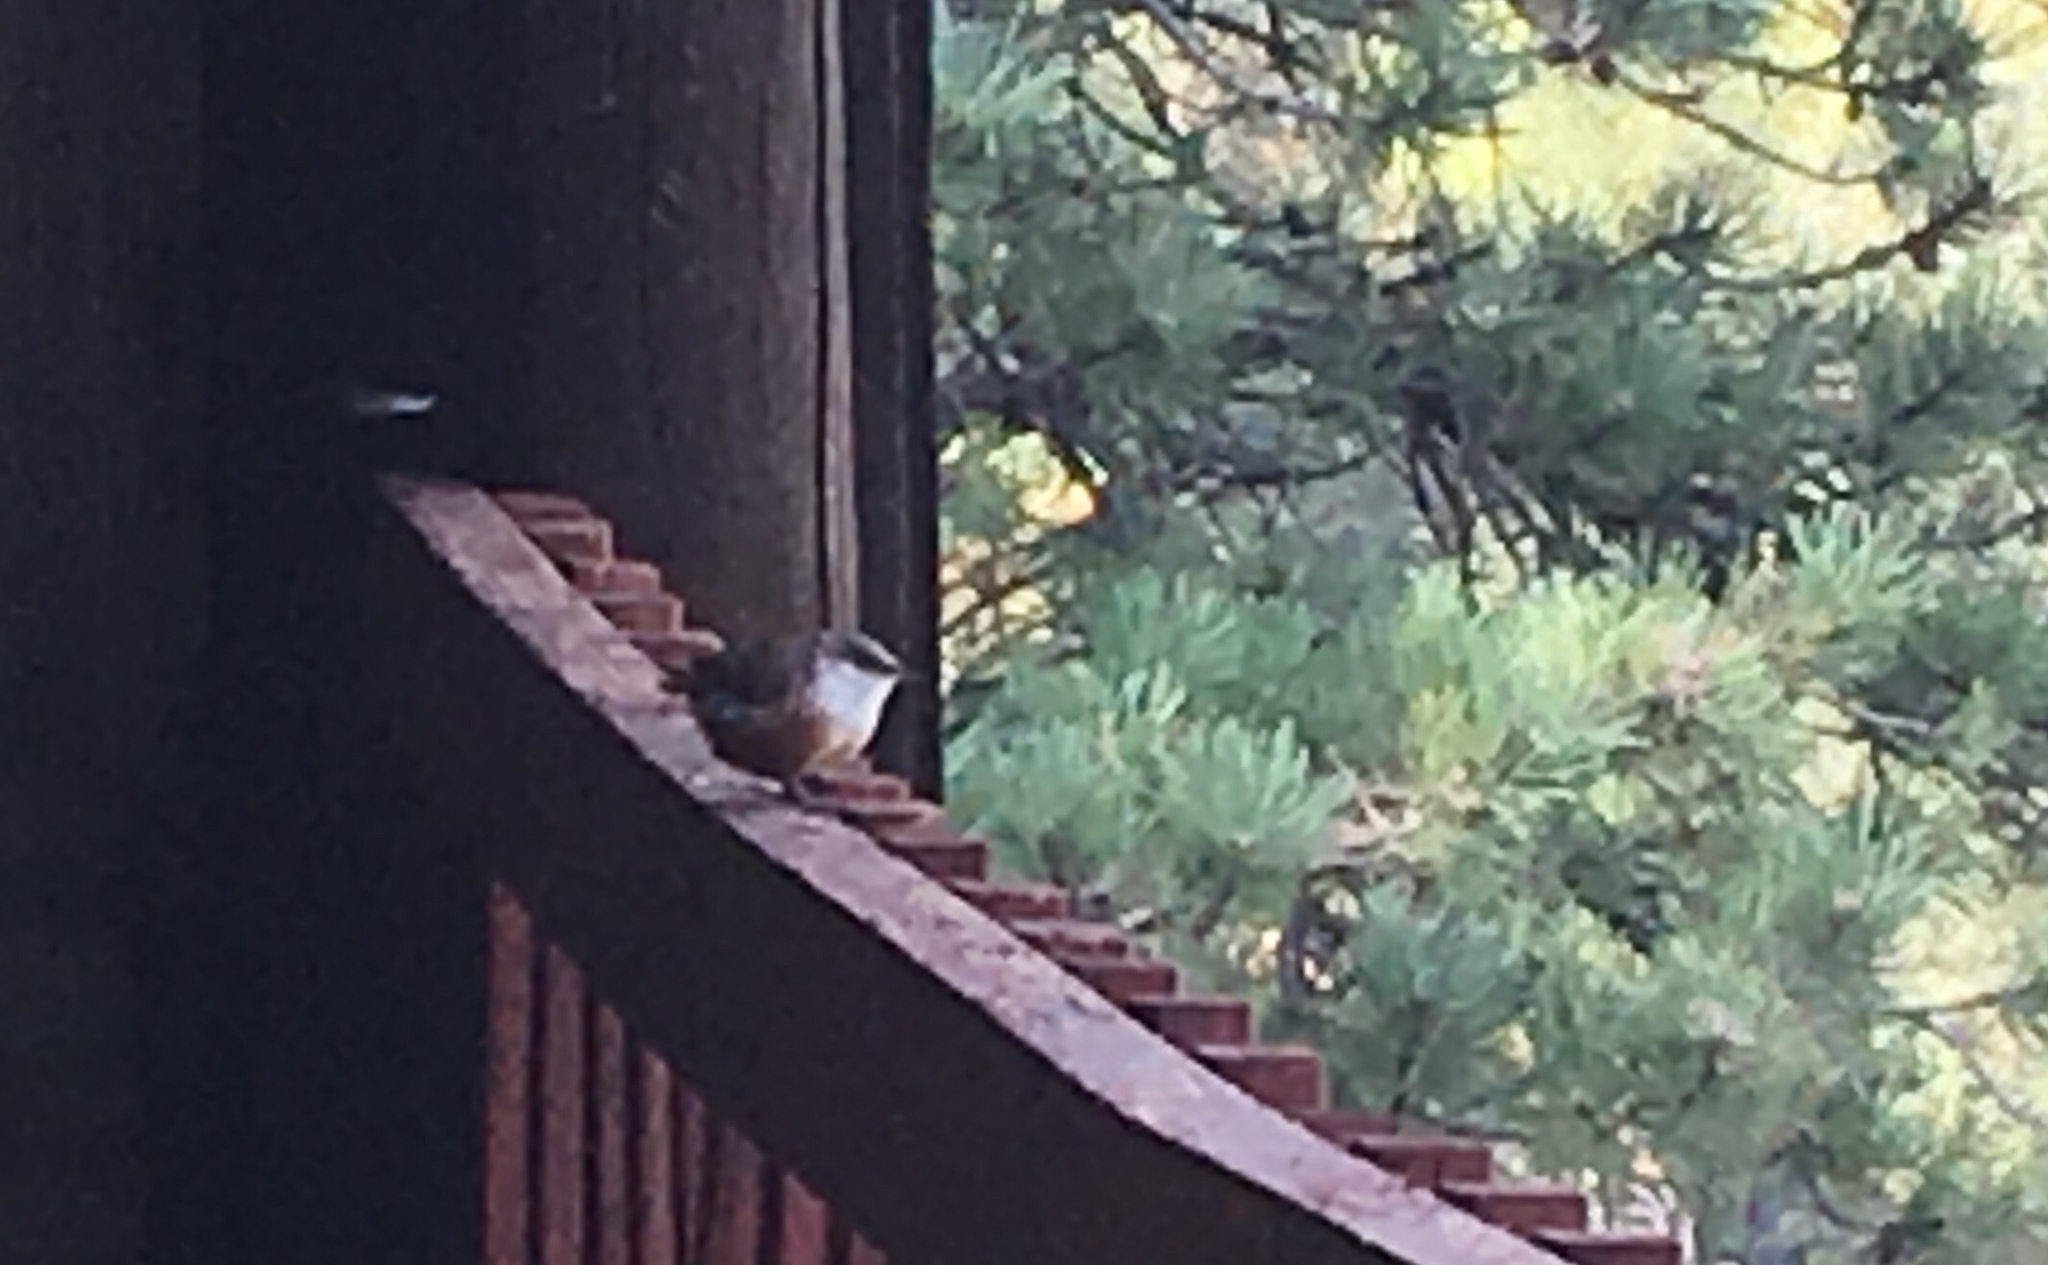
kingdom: Animalia
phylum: Chordata
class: Aves
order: Passeriformes
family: Troglodytidae
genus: Catherpes
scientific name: Catherpes mexicanus
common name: Canyon wren
